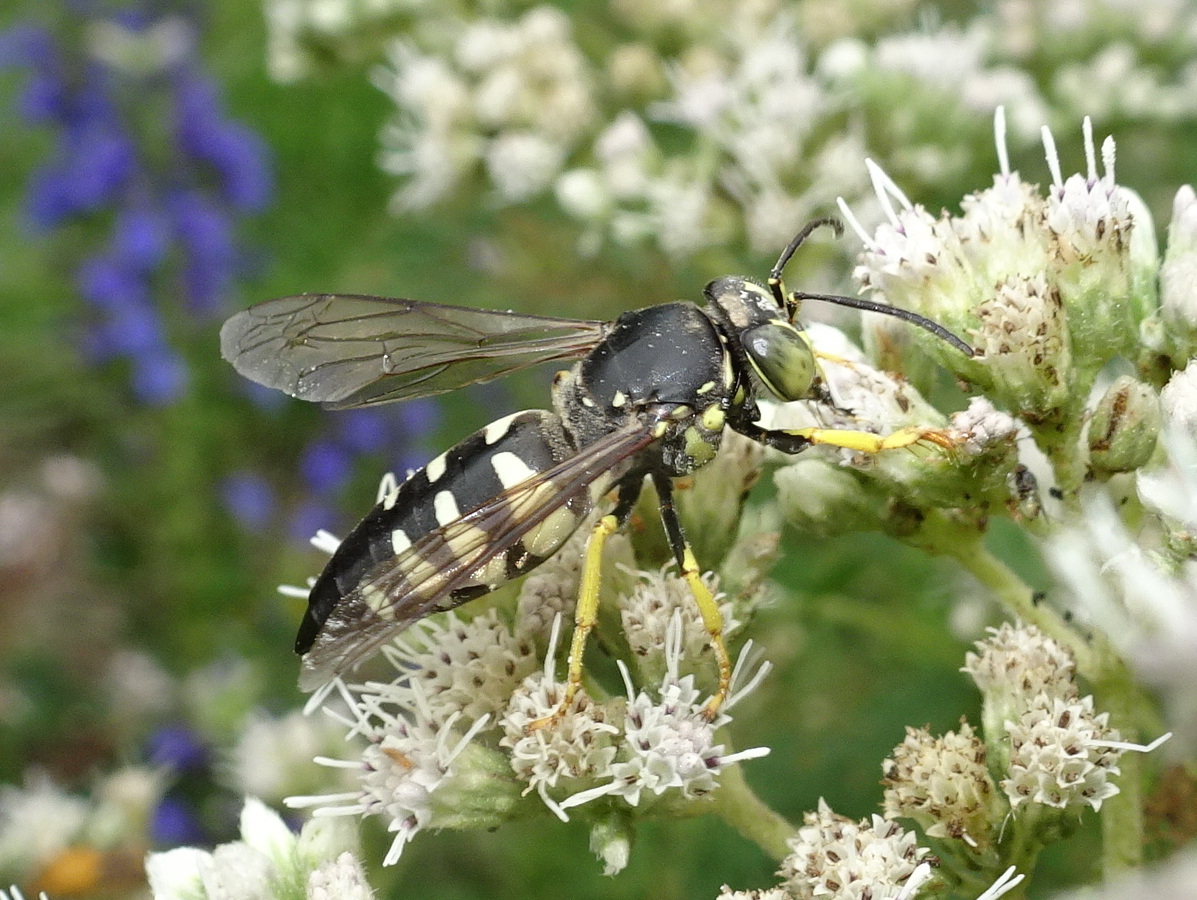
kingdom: Animalia
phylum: Arthropoda
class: Insecta
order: Hymenoptera
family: Crabronidae
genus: Bicyrtes
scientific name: Bicyrtes quadrifasciatus
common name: Four-banded stink bug hunter wasp
